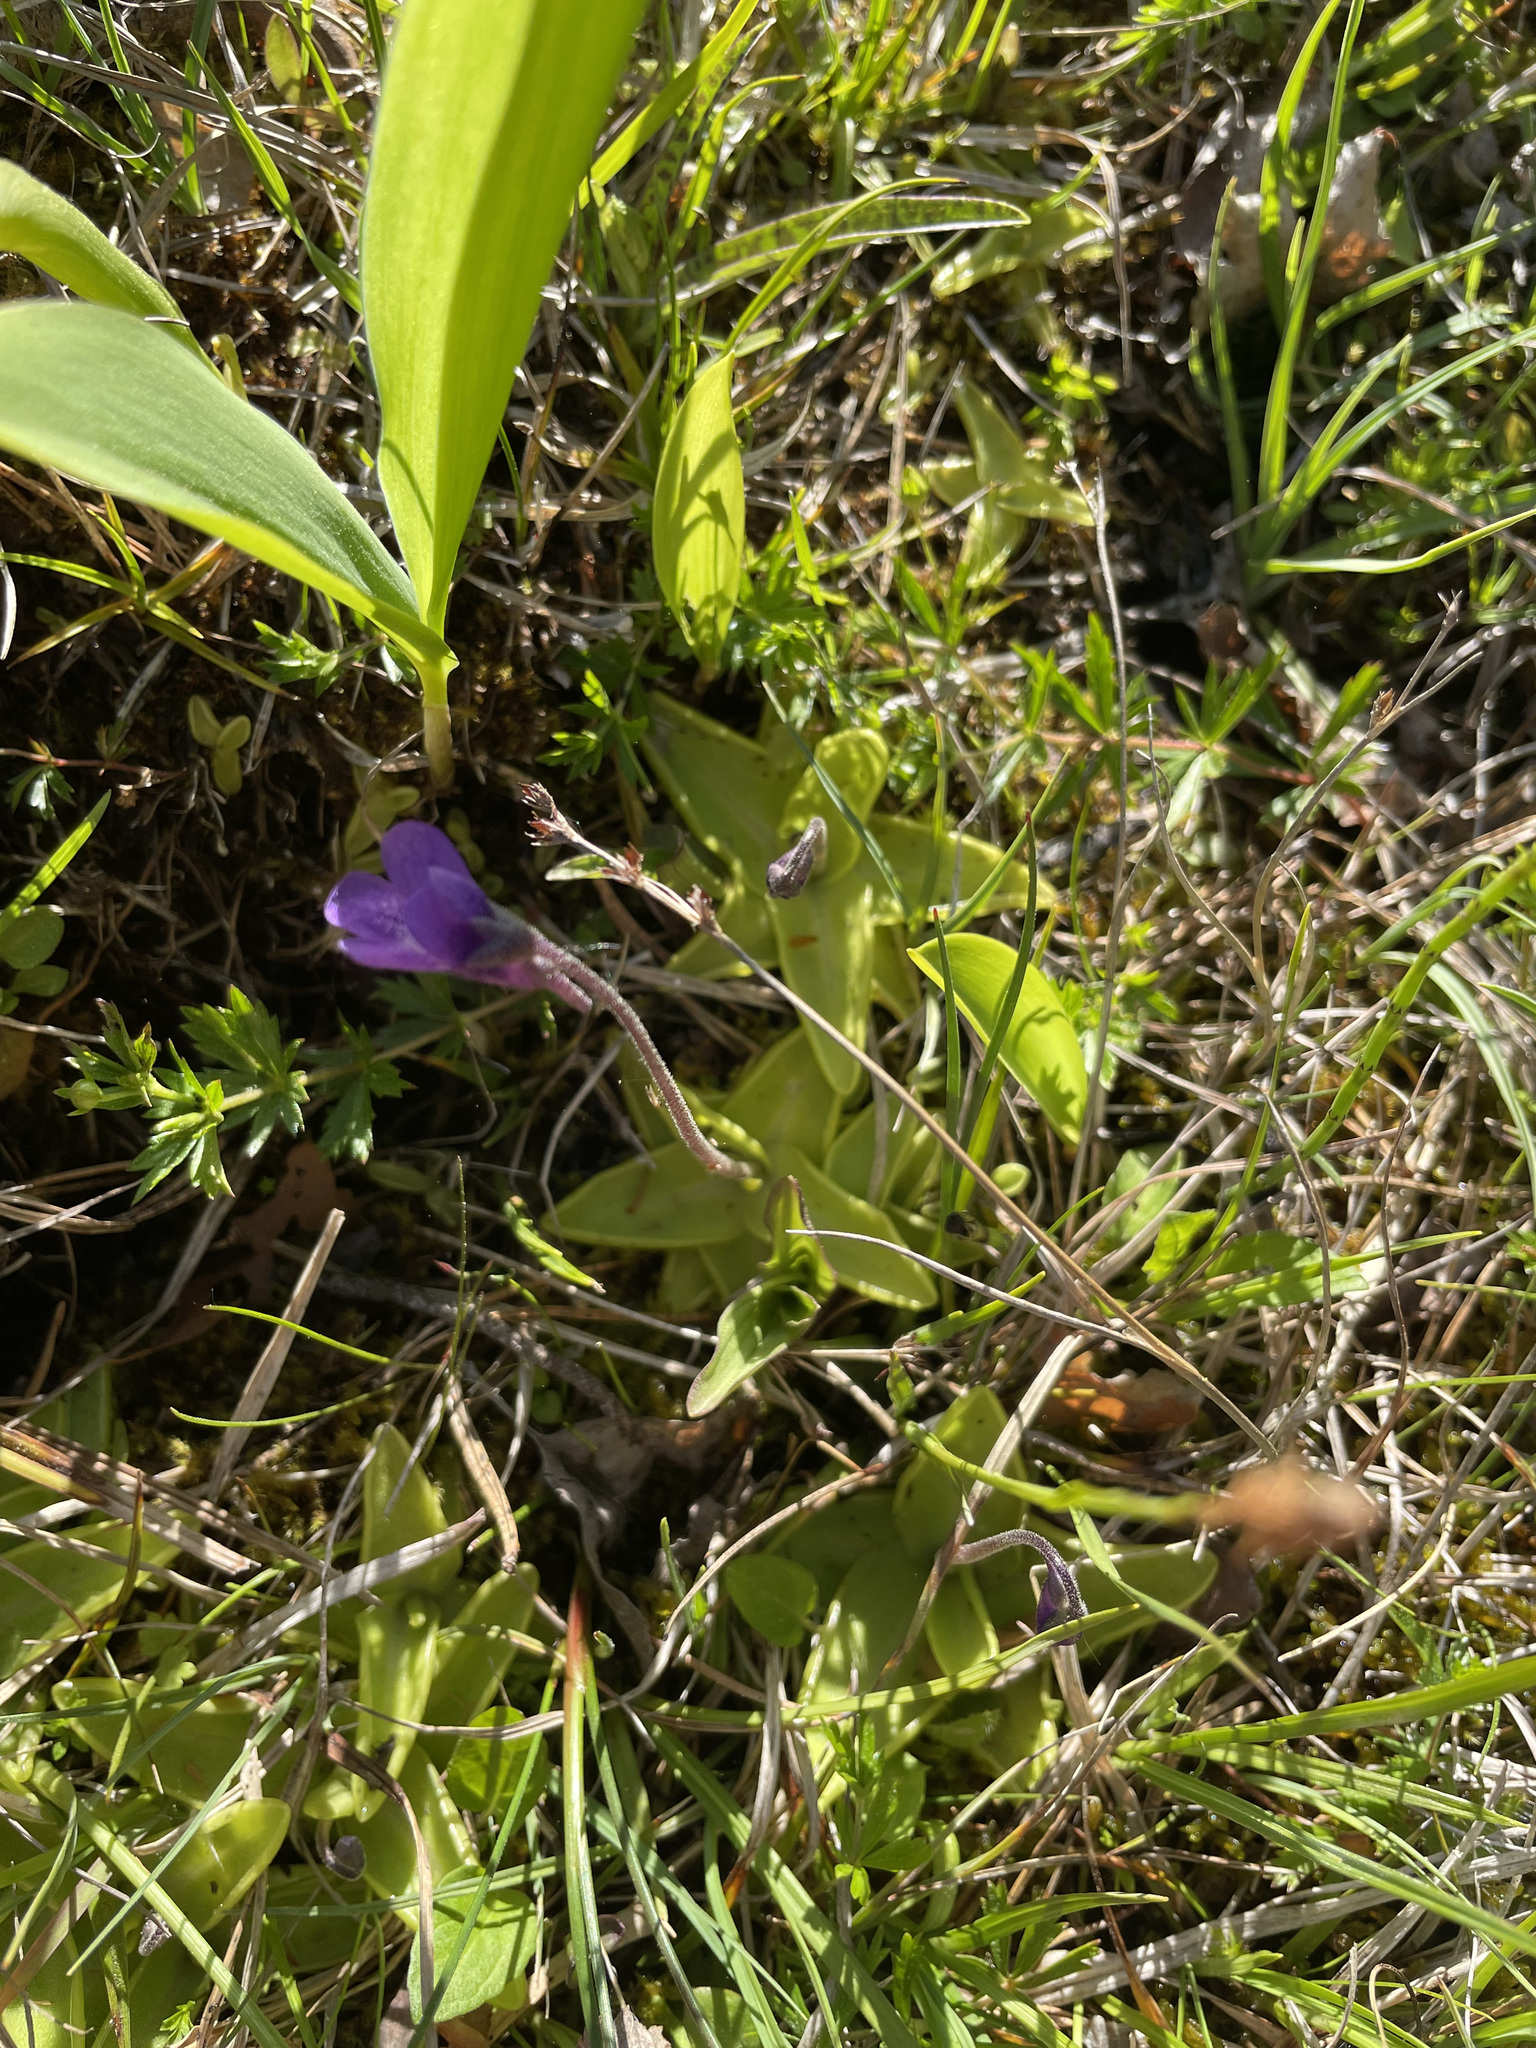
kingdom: Plantae
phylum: Tracheophyta
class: Magnoliopsida
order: Lamiales
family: Lentibulariaceae
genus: Pinguicula
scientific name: Pinguicula vulgaris
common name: Common butterwort
